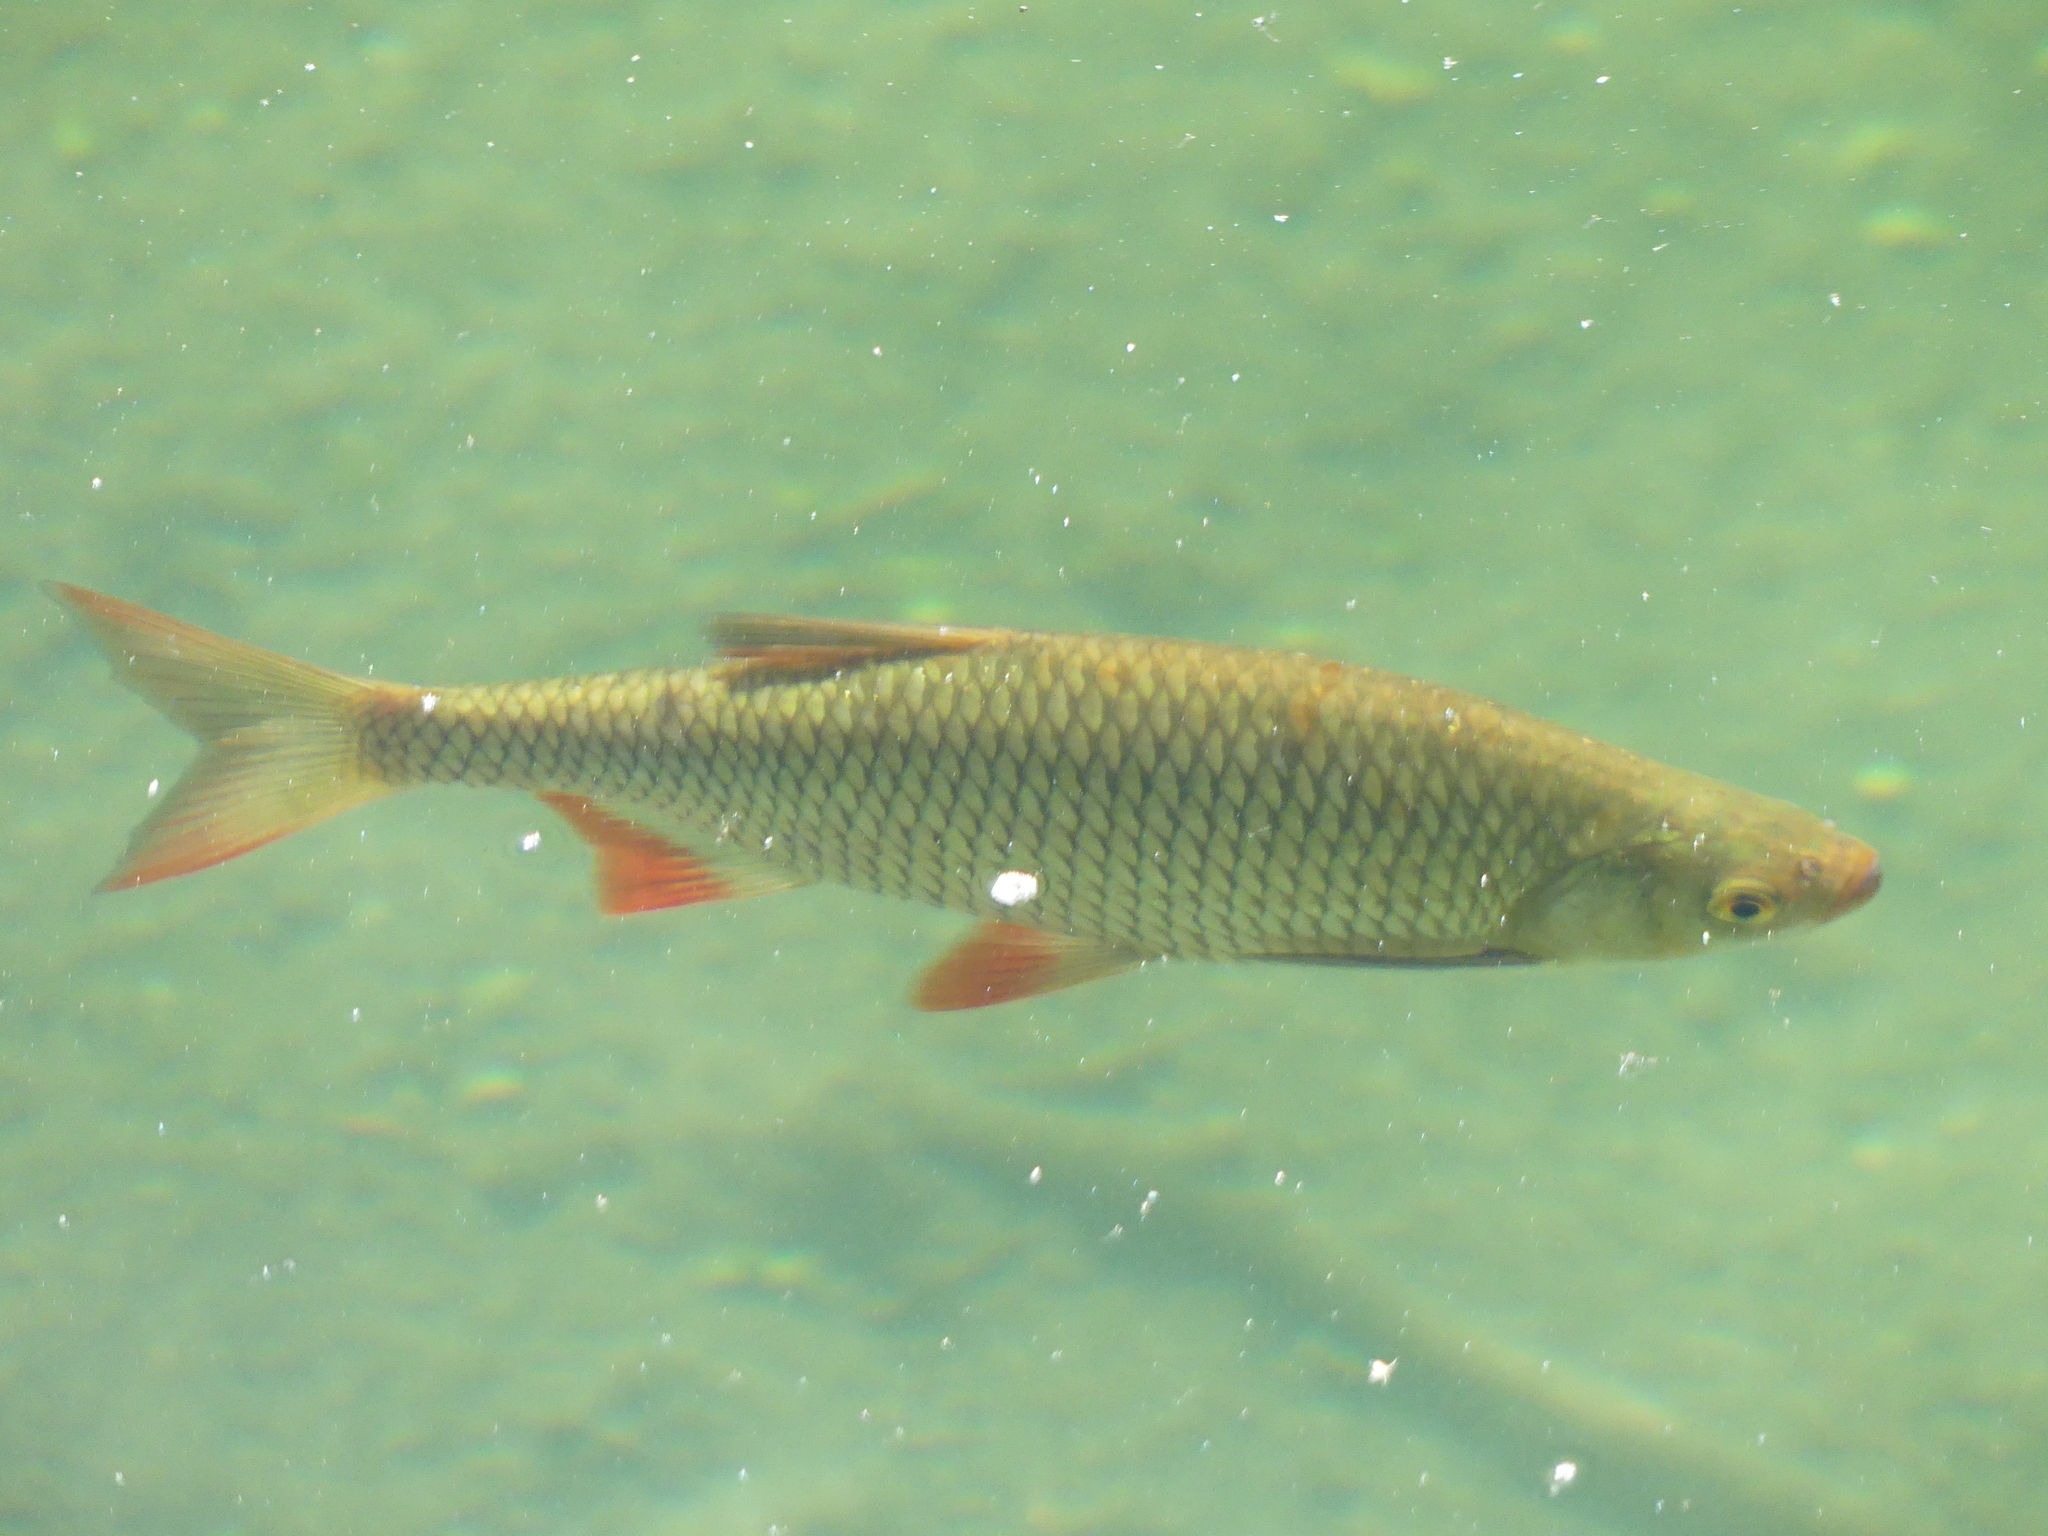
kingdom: Animalia
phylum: Chordata
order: Cypriniformes
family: Cyprinidae
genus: Scardinius
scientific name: Scardinius erythrophthalmus
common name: Rudd
